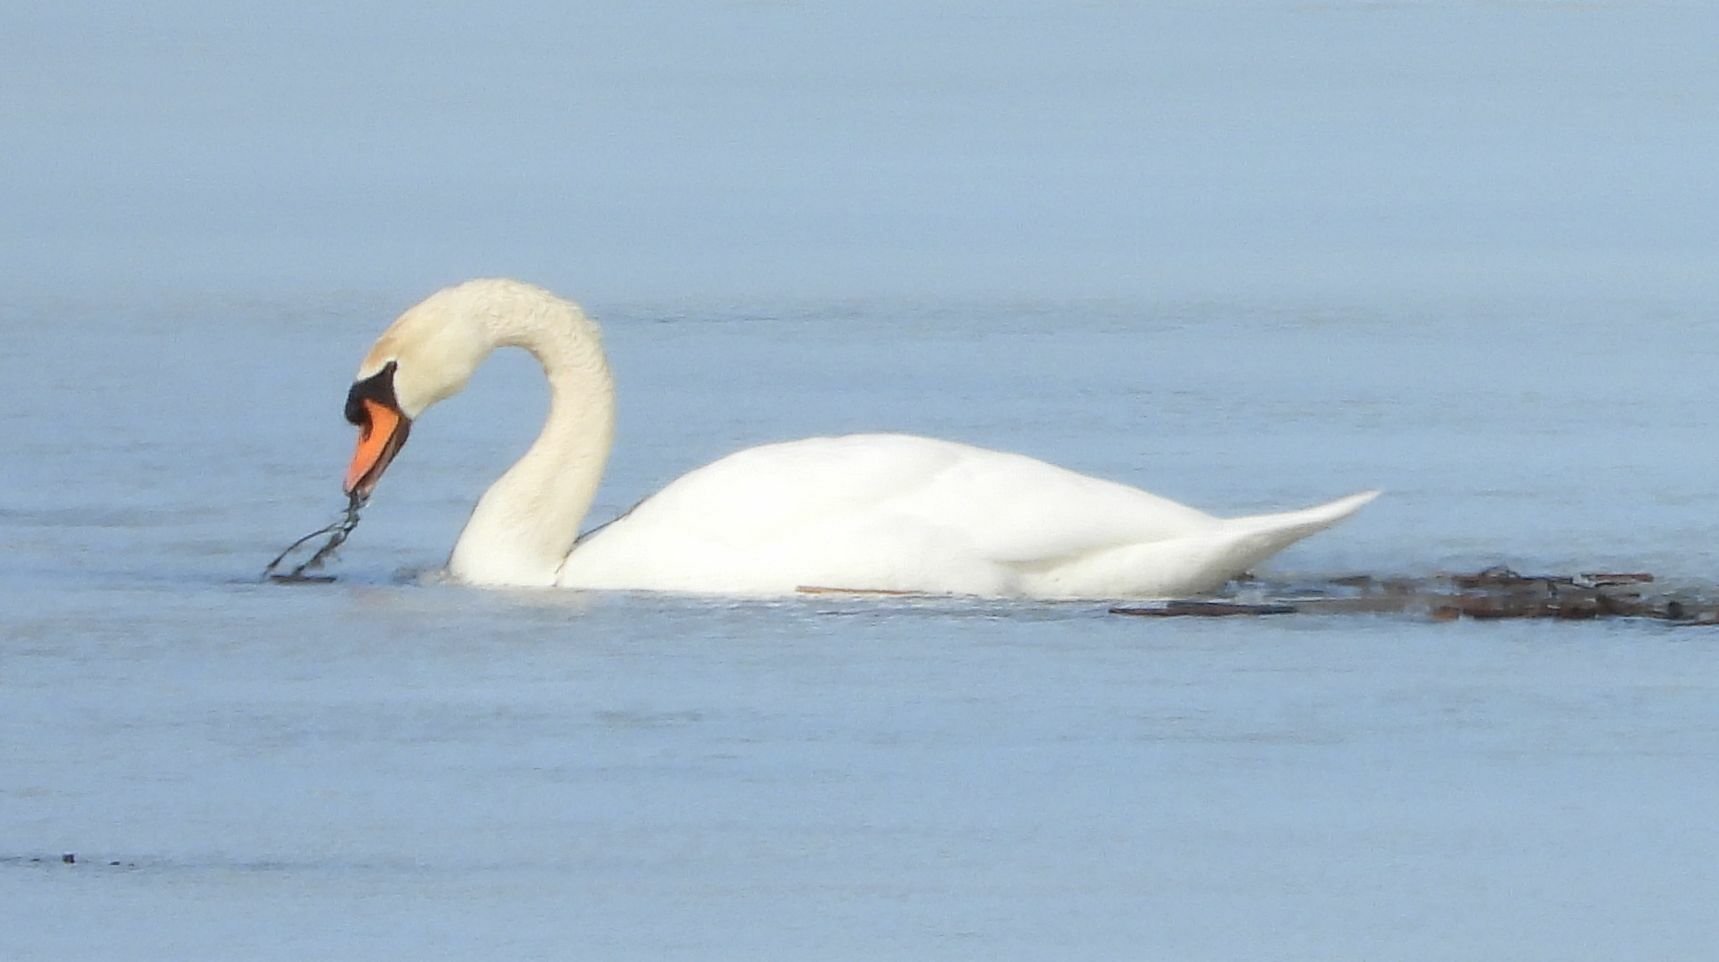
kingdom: Animalia
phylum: Chordata
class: Aves
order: Anseriformes
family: Anatidae
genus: Cygnus
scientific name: Cygnus olor
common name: Mute swan
